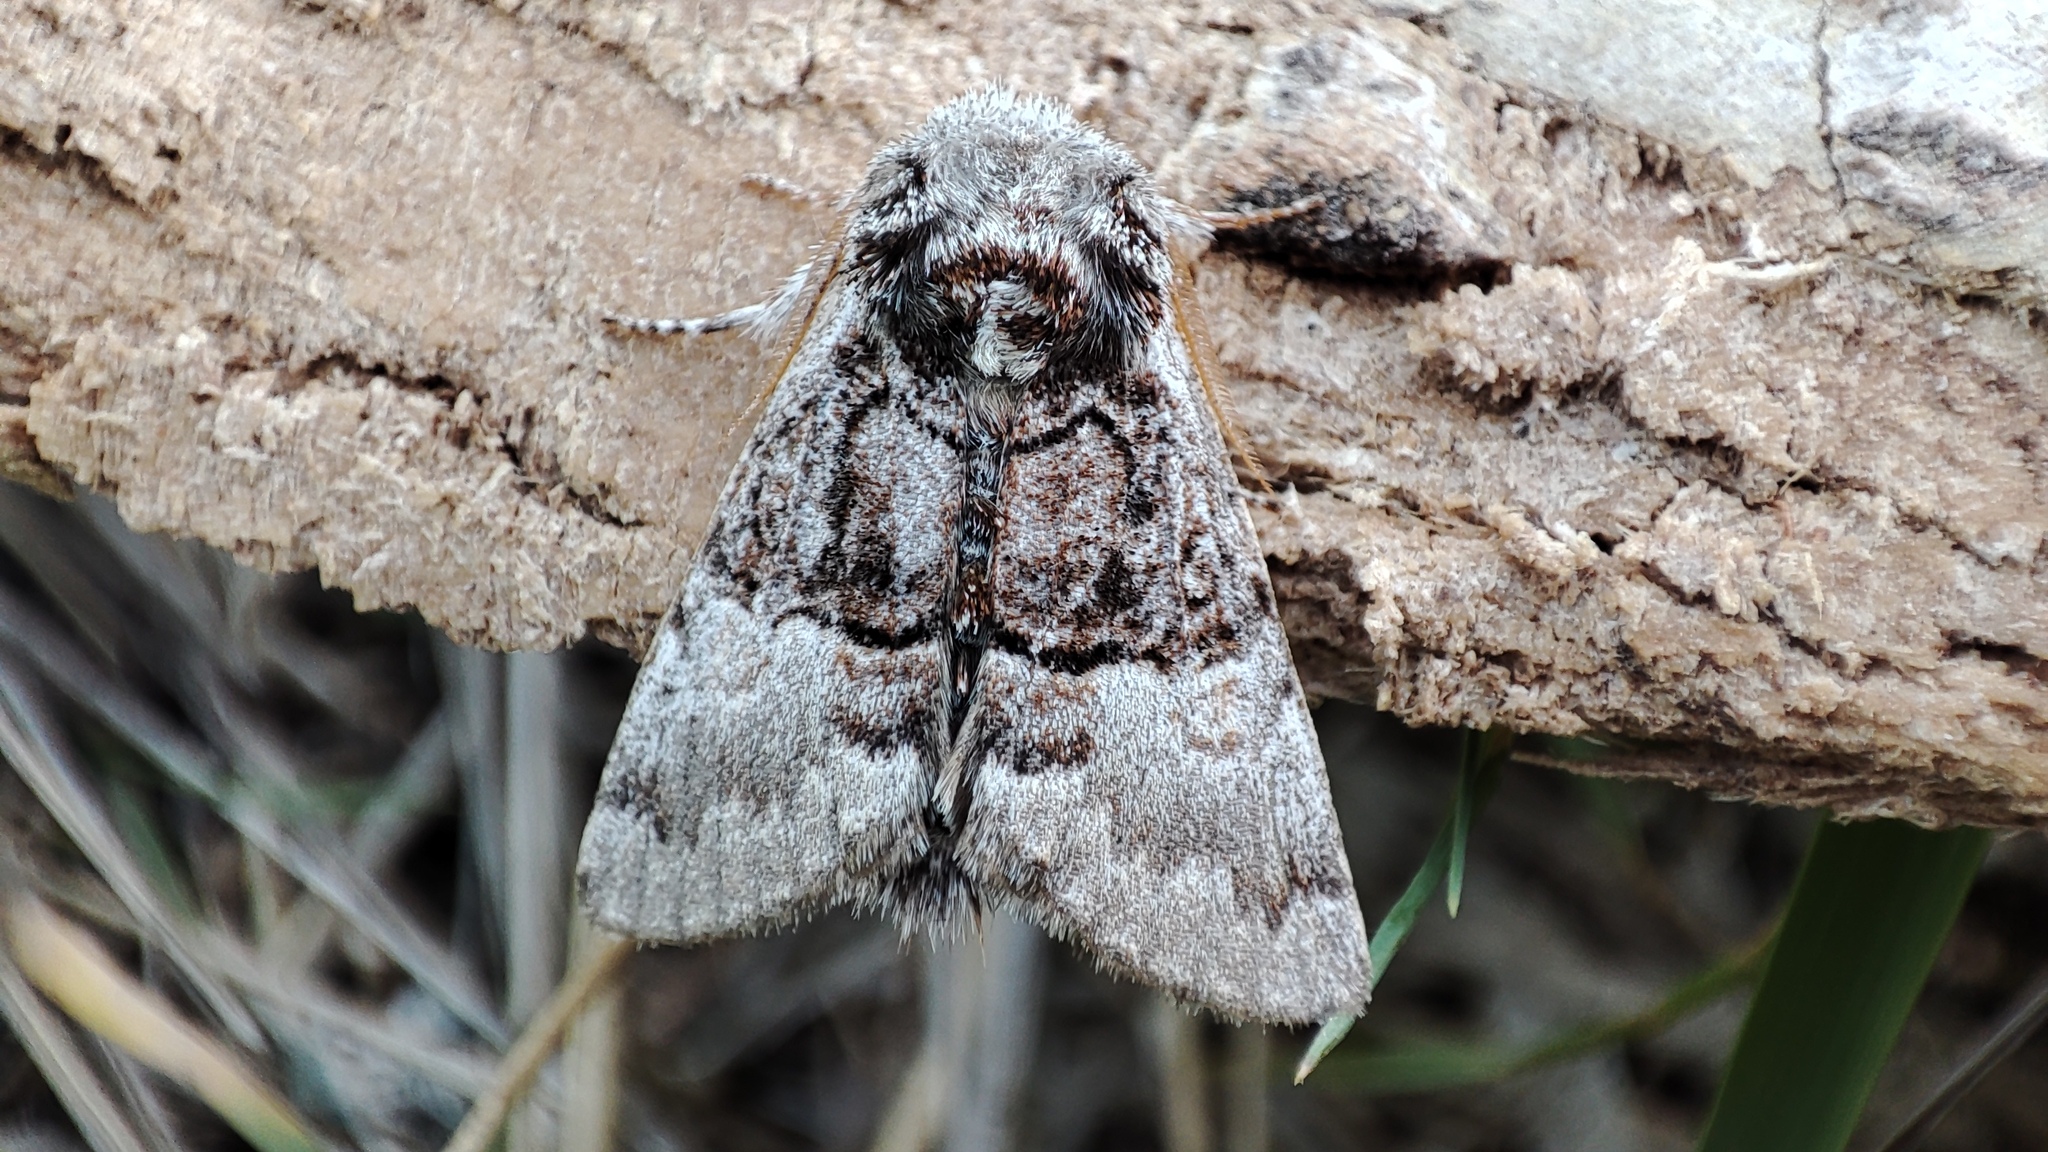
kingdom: Animalia
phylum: Arthropoda
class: Insecta
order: Lepidoptera
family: Noctuidae
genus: Colocasia
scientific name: Colocasia coryli
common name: Nut-tree tussock
